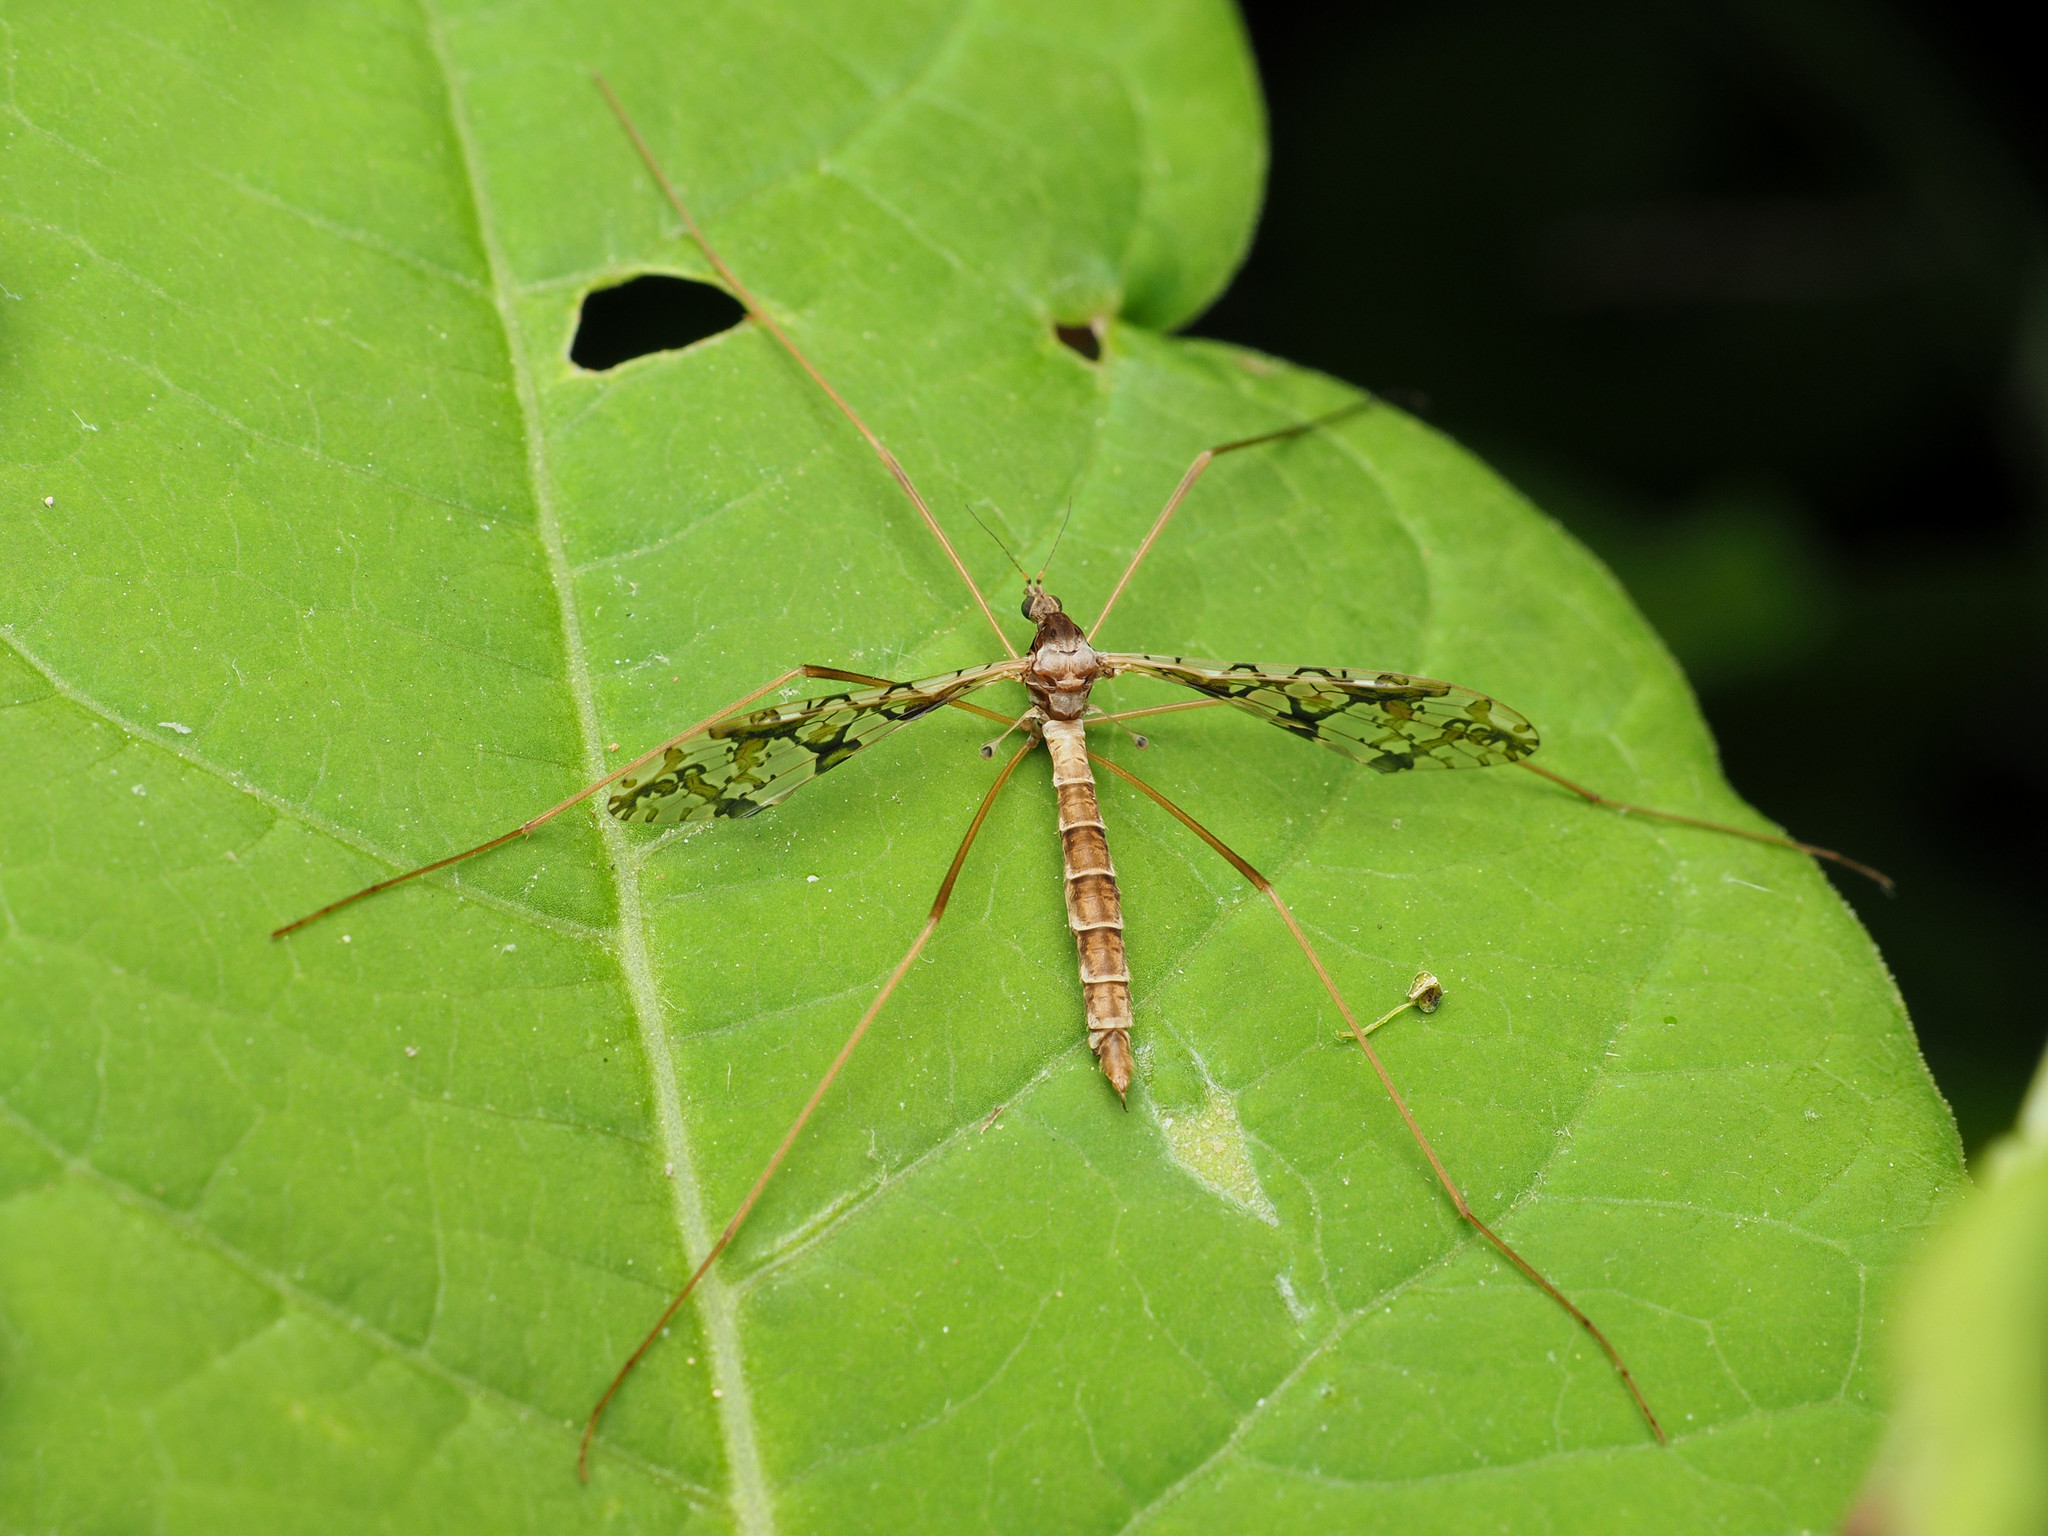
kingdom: Animalia
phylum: Arthropoda
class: Insecta
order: Diptera
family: Limoniidae
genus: Epiphragma
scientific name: Epiphragma solatrix
